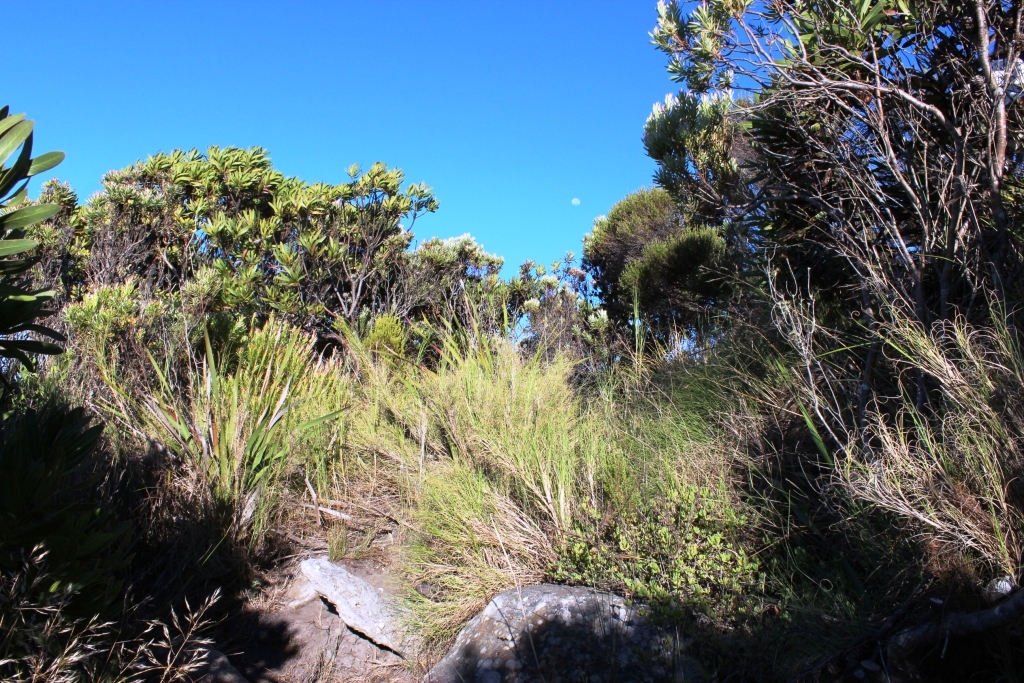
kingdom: Plantae
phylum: Tracheophyta
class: Liliopsida
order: Poales
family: Poaceae
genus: Pseudopentameris
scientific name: Pseudopentameris macrantha
